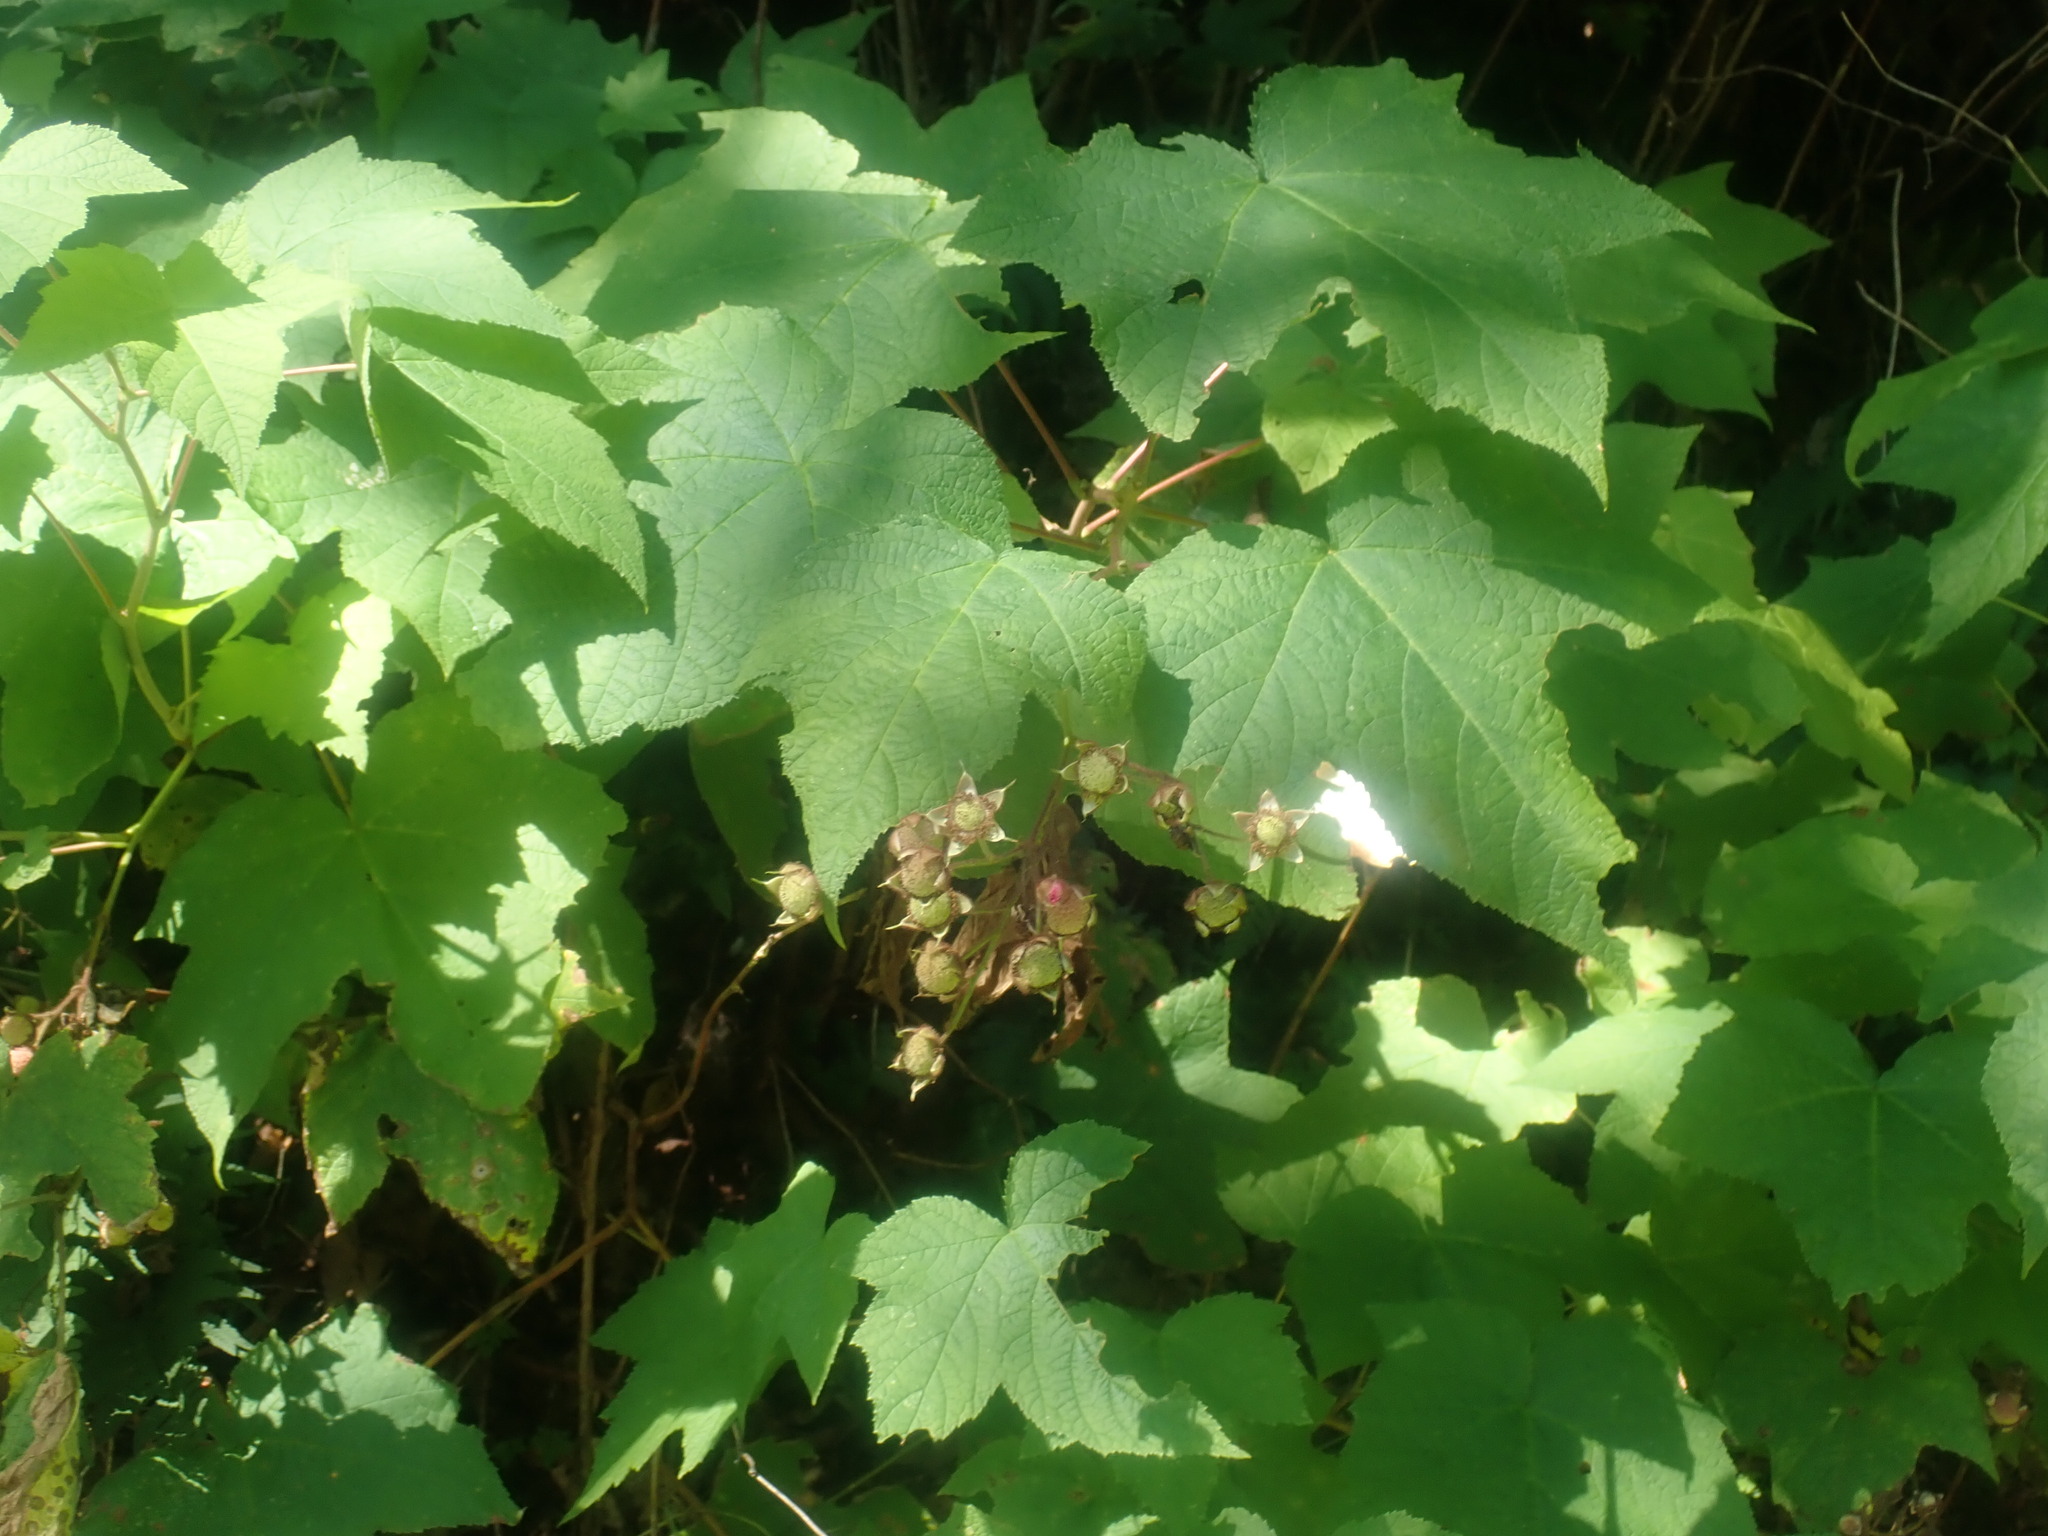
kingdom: Plantae
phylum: Tracheophyta
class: Magnoliopsida
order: Rosales
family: Rosaceae
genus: Rubus
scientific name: Rubus odoratus
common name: Purple-flowered raspberry
